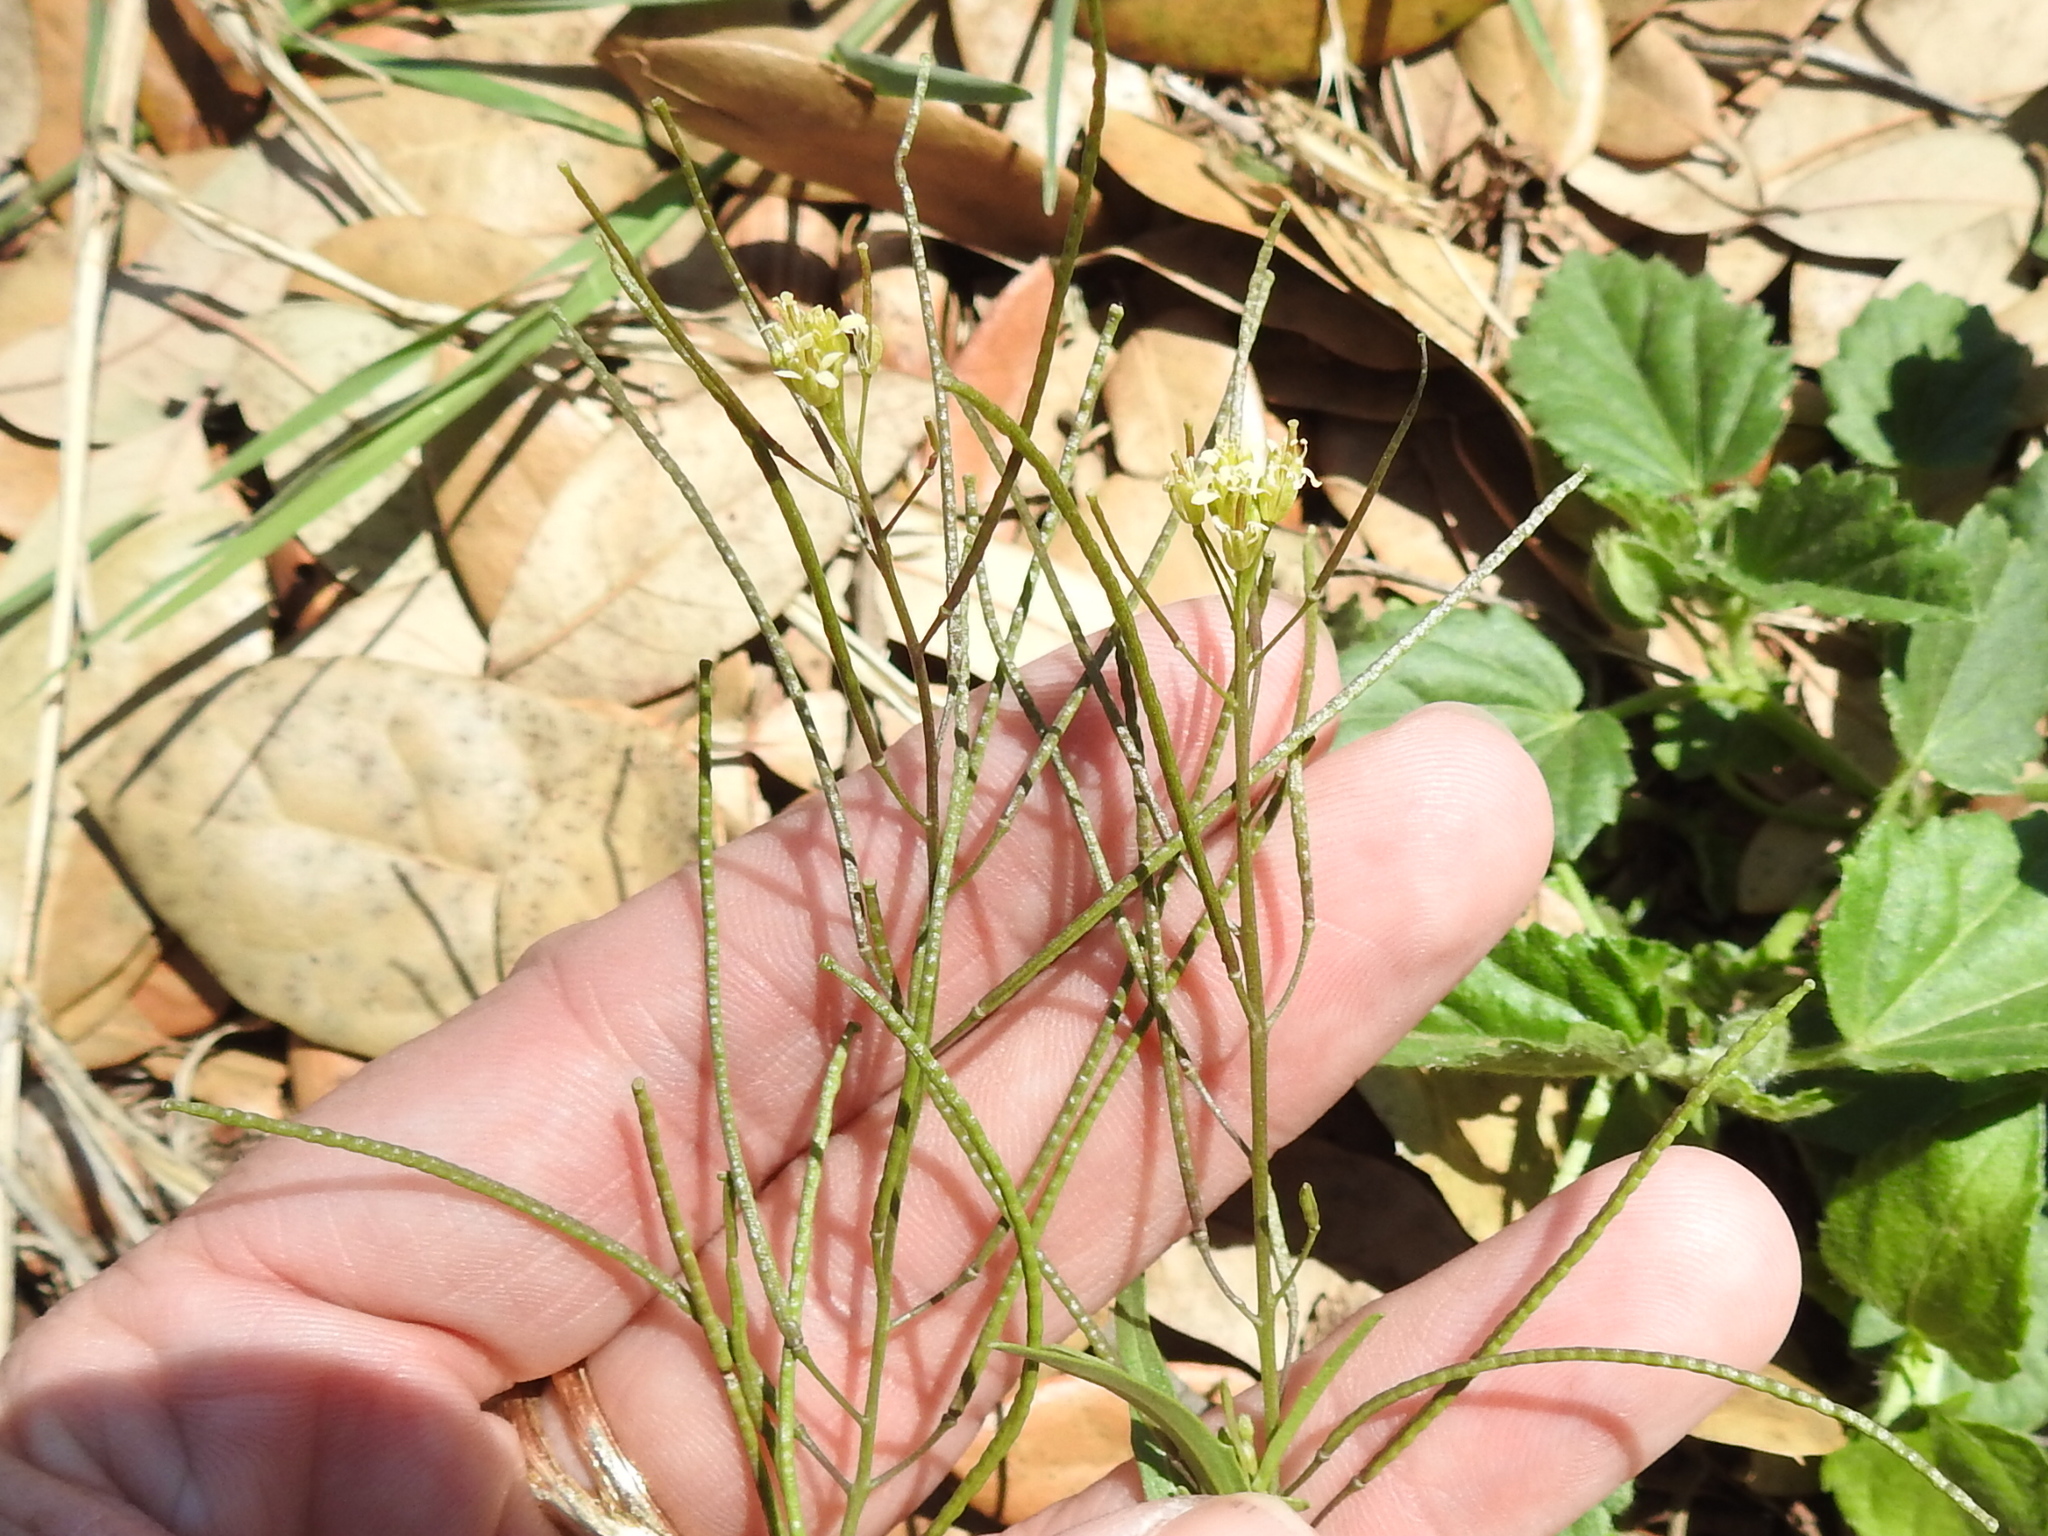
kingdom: Plantae
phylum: Tracheophyta
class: Magnoliopsida
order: Brassicales
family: Brassicaceae
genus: Sisymbrium
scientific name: Sisymbrium irio
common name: London rocket
